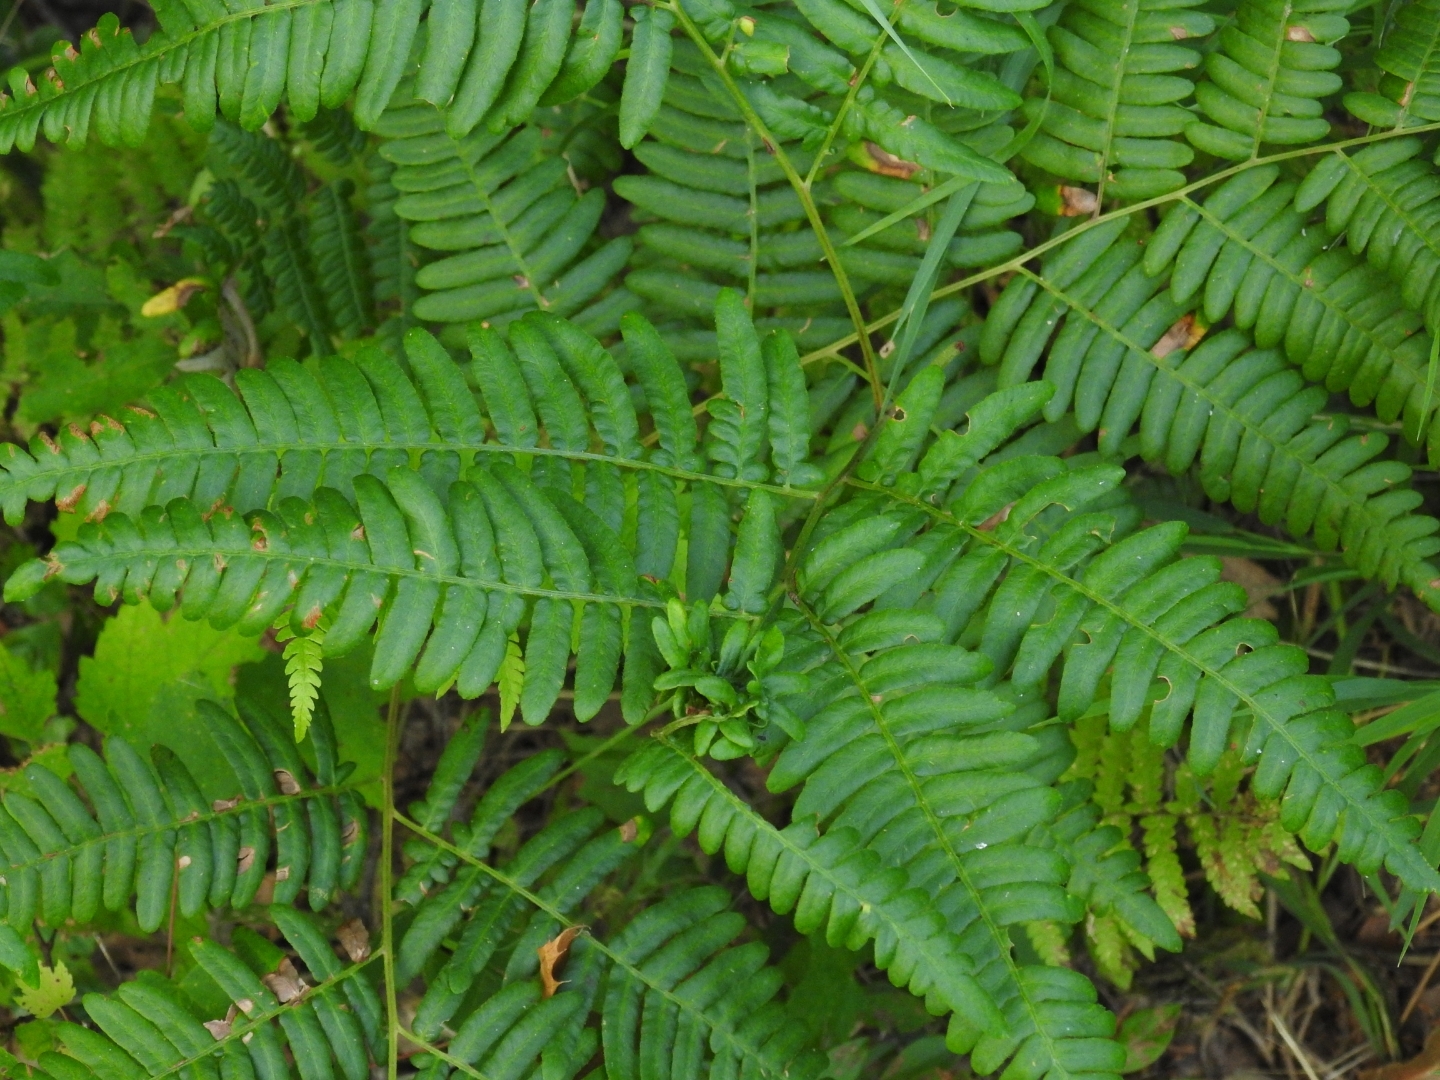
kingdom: Plantae
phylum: Tracheophyta
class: Polypodiopsida
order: Polypodiales
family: Dennstaedtiaceae
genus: Pteridium
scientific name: Pteridium aquilinum
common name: Bracken
